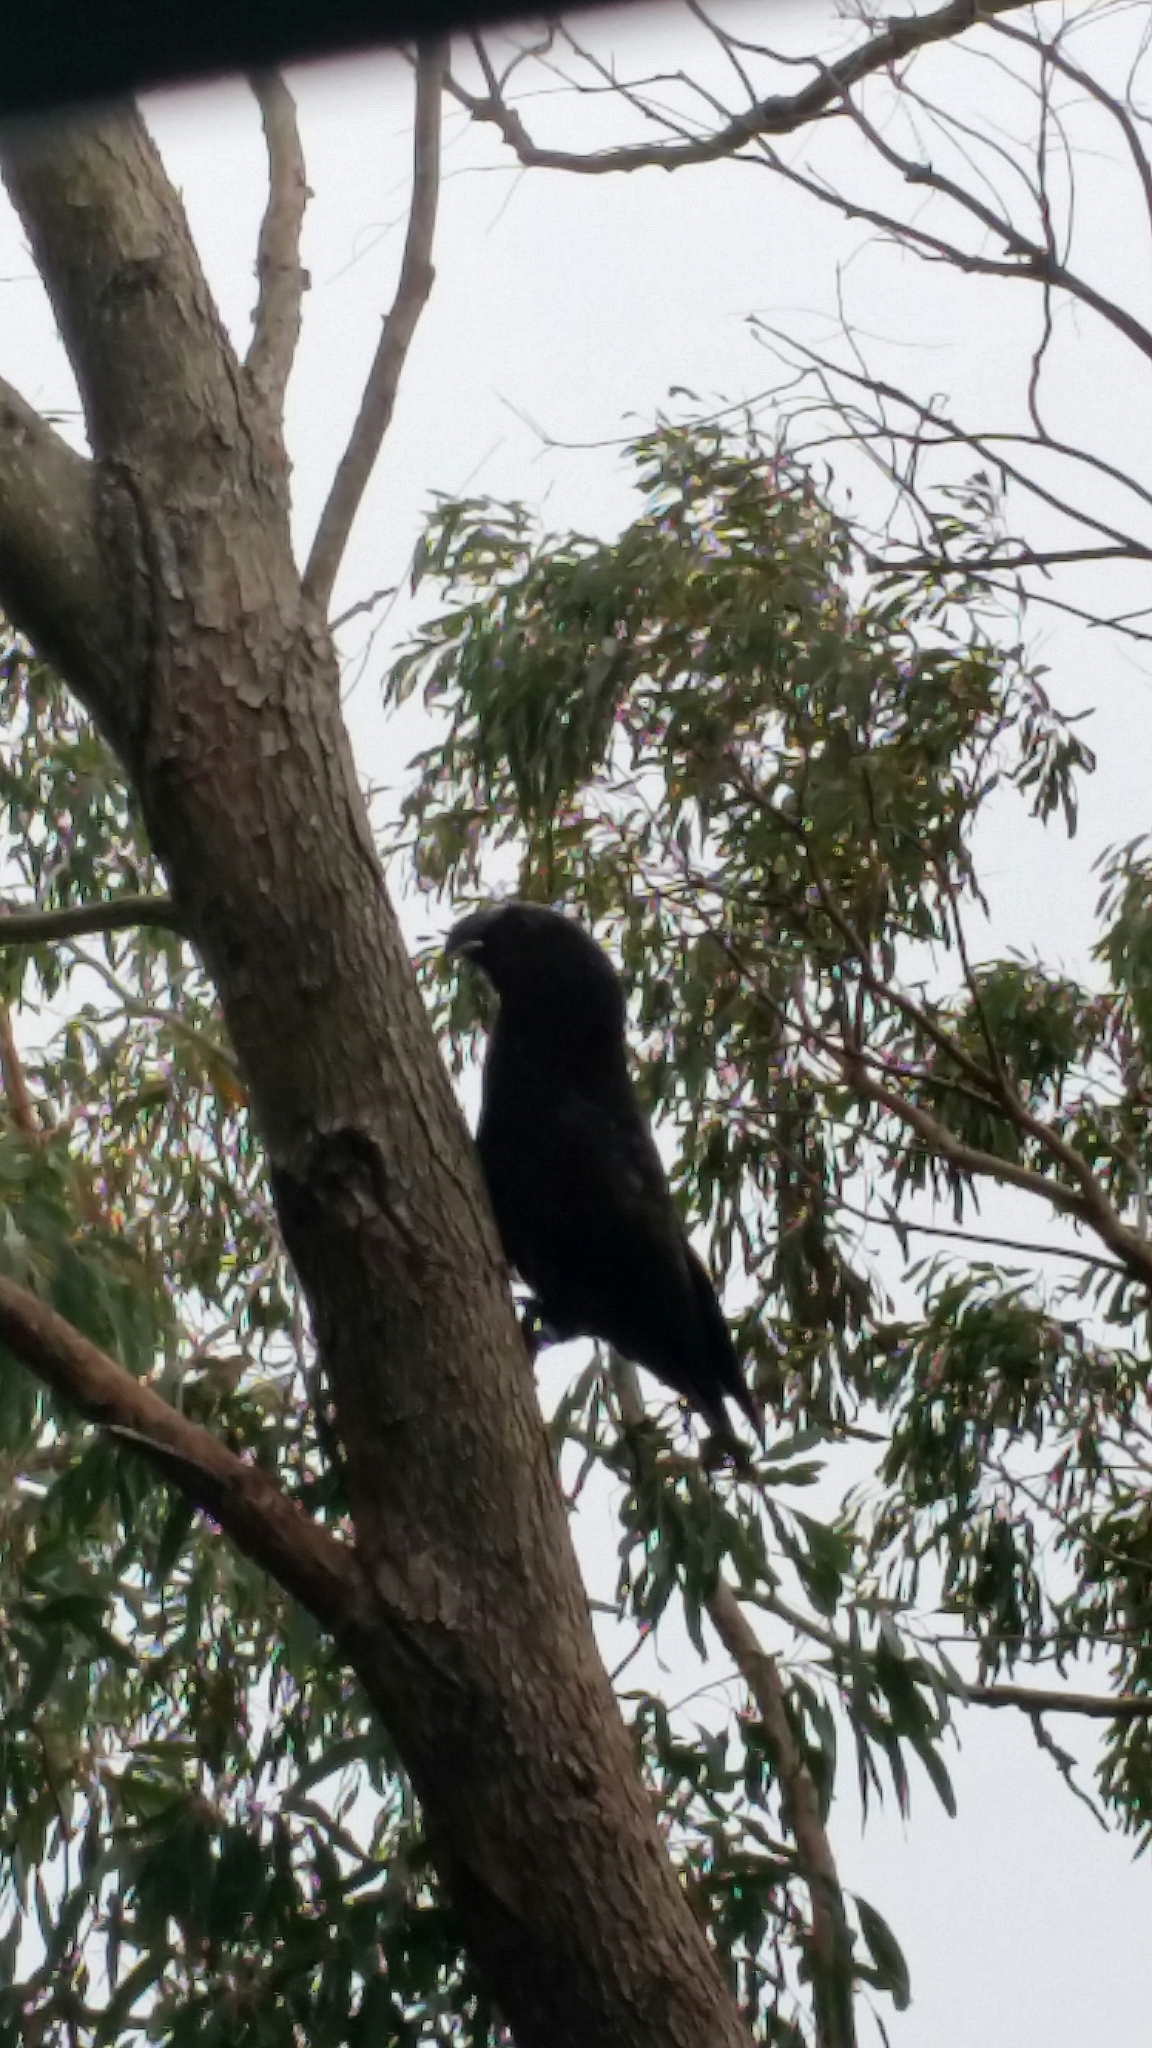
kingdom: Animalia
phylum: Chordata
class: Aves
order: Psittaciformes
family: Psittacidae
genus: Nestor
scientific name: Nestor meridionalis
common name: New zealand kaka
